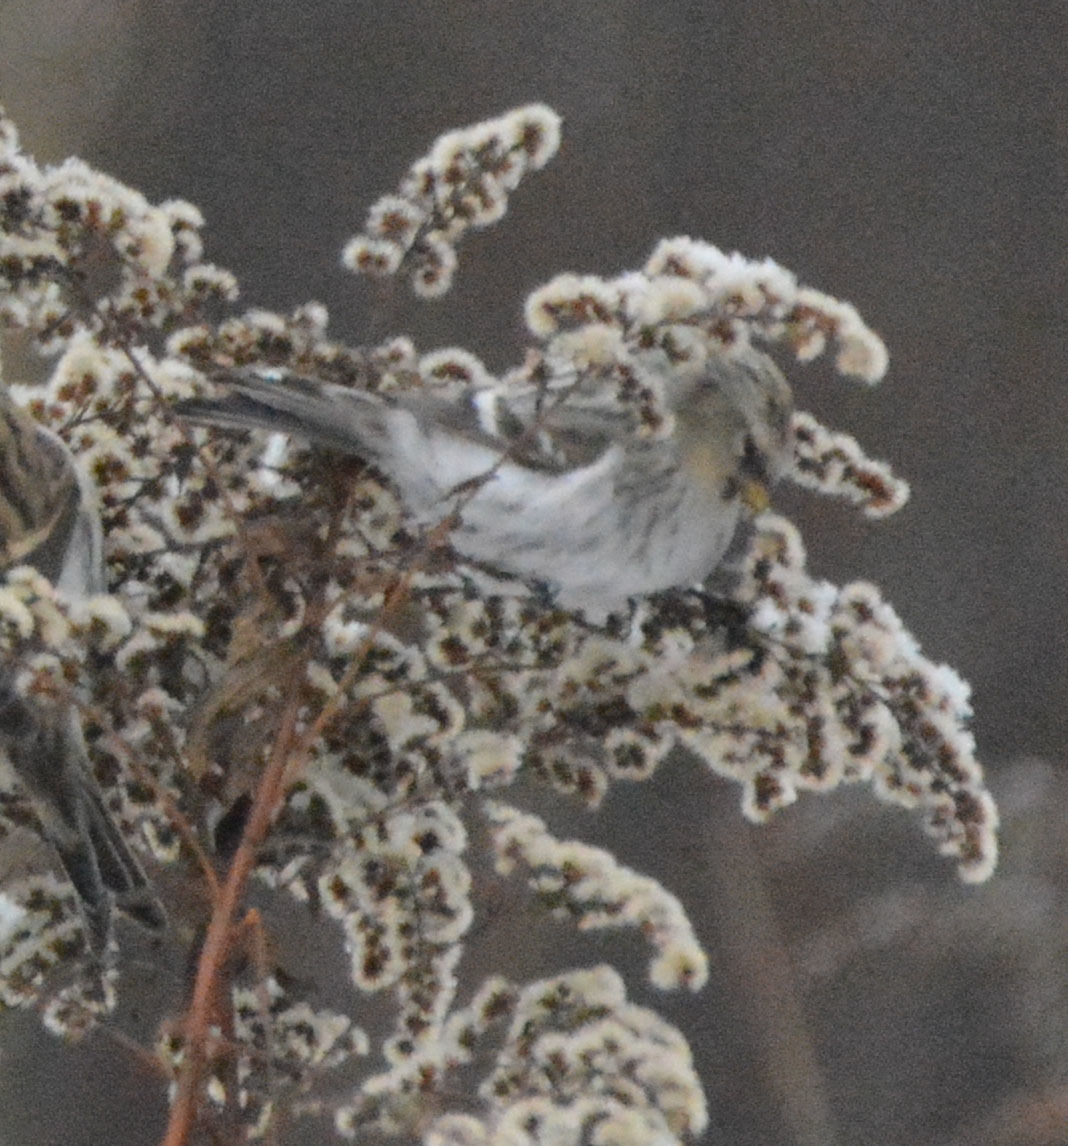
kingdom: Animalia
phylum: Chordata
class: Aves
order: Passeriformes
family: Fringillidae
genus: Acanthis
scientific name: Acanthis hornemanni
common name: Arctic redpoll
